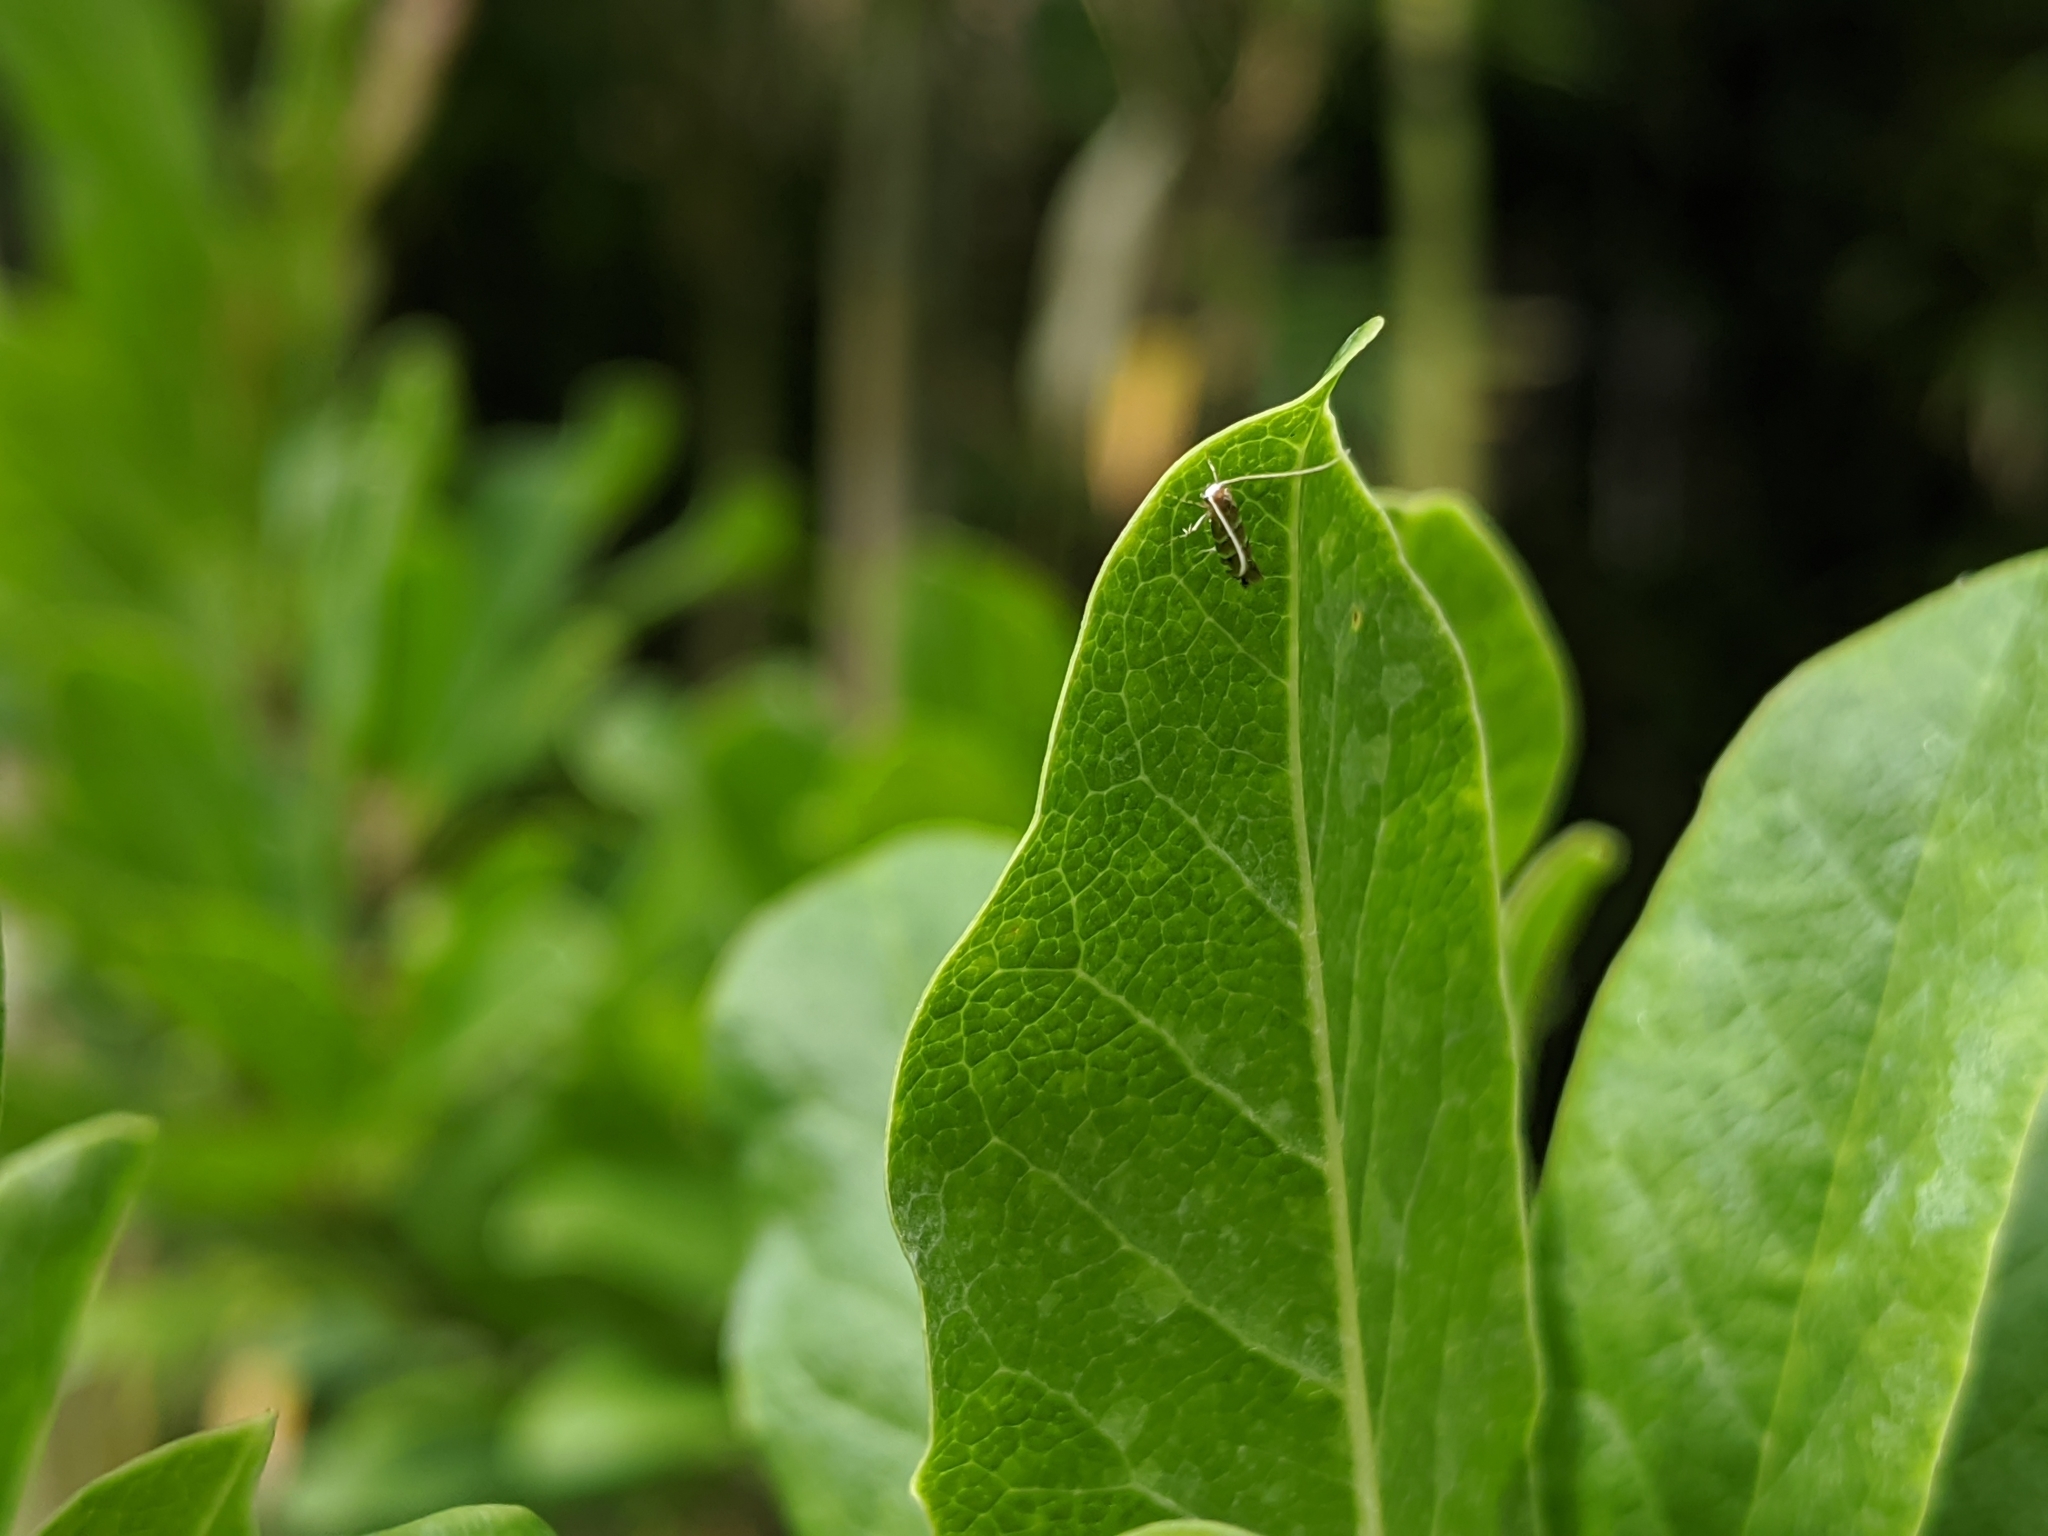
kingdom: Animalia
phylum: Arthropoda
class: Insecta
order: Lepidoptera
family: Gracillariidae
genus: Cameraria
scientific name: Cameraria ohridella
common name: Horse-chestnut leaf-miner
